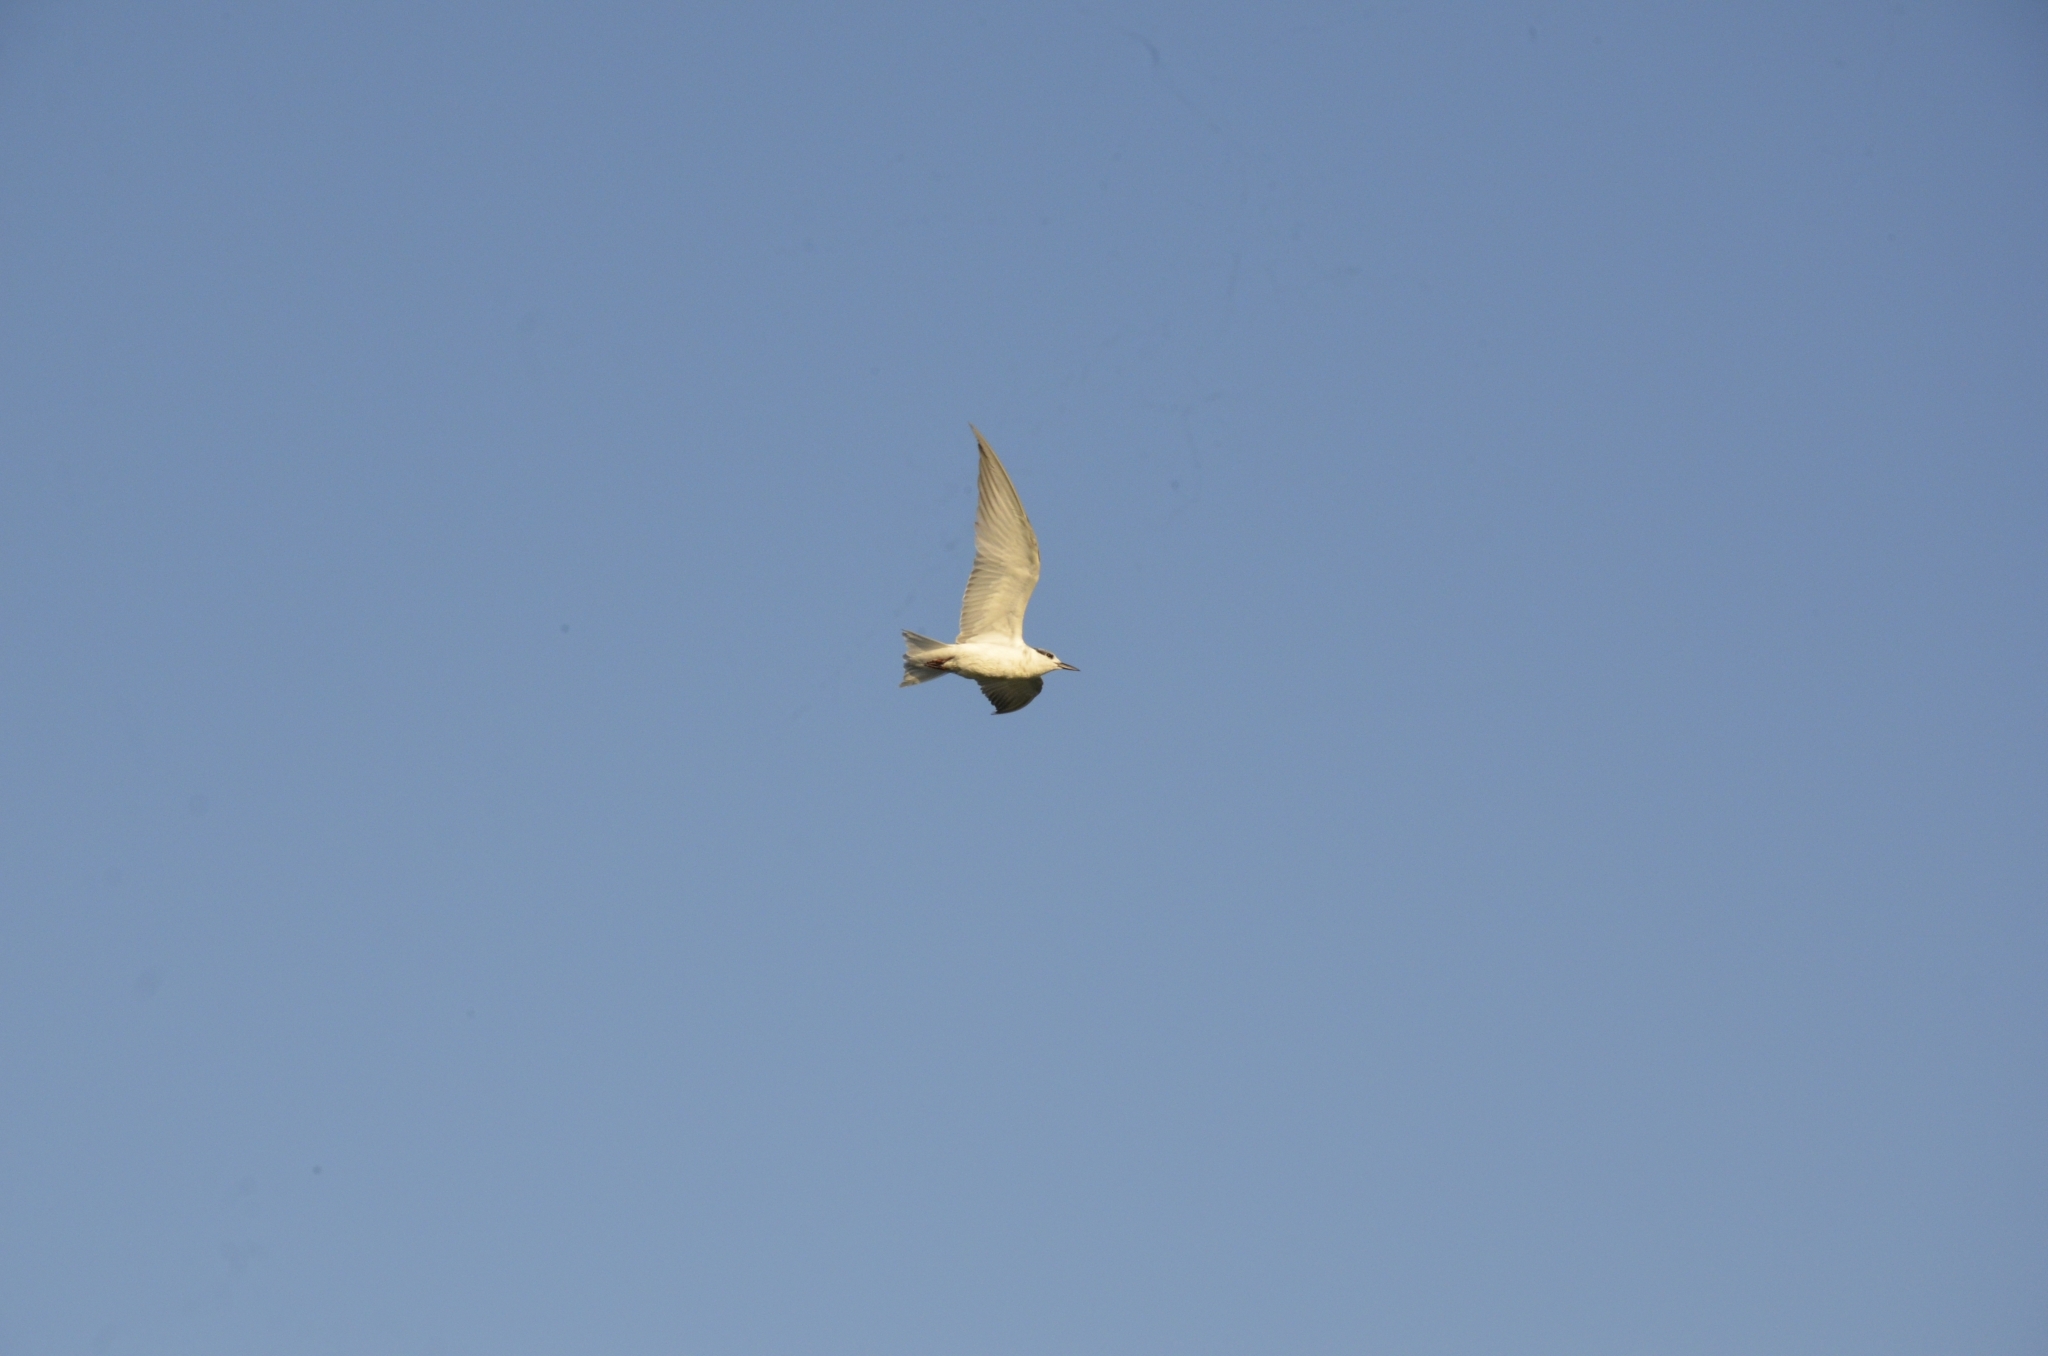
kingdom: Animalia
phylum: Chordata
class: Aves
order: Charadriiformes
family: Laridae
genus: Chlidonias
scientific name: Chlidonias hybrida
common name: Whiskered tern
